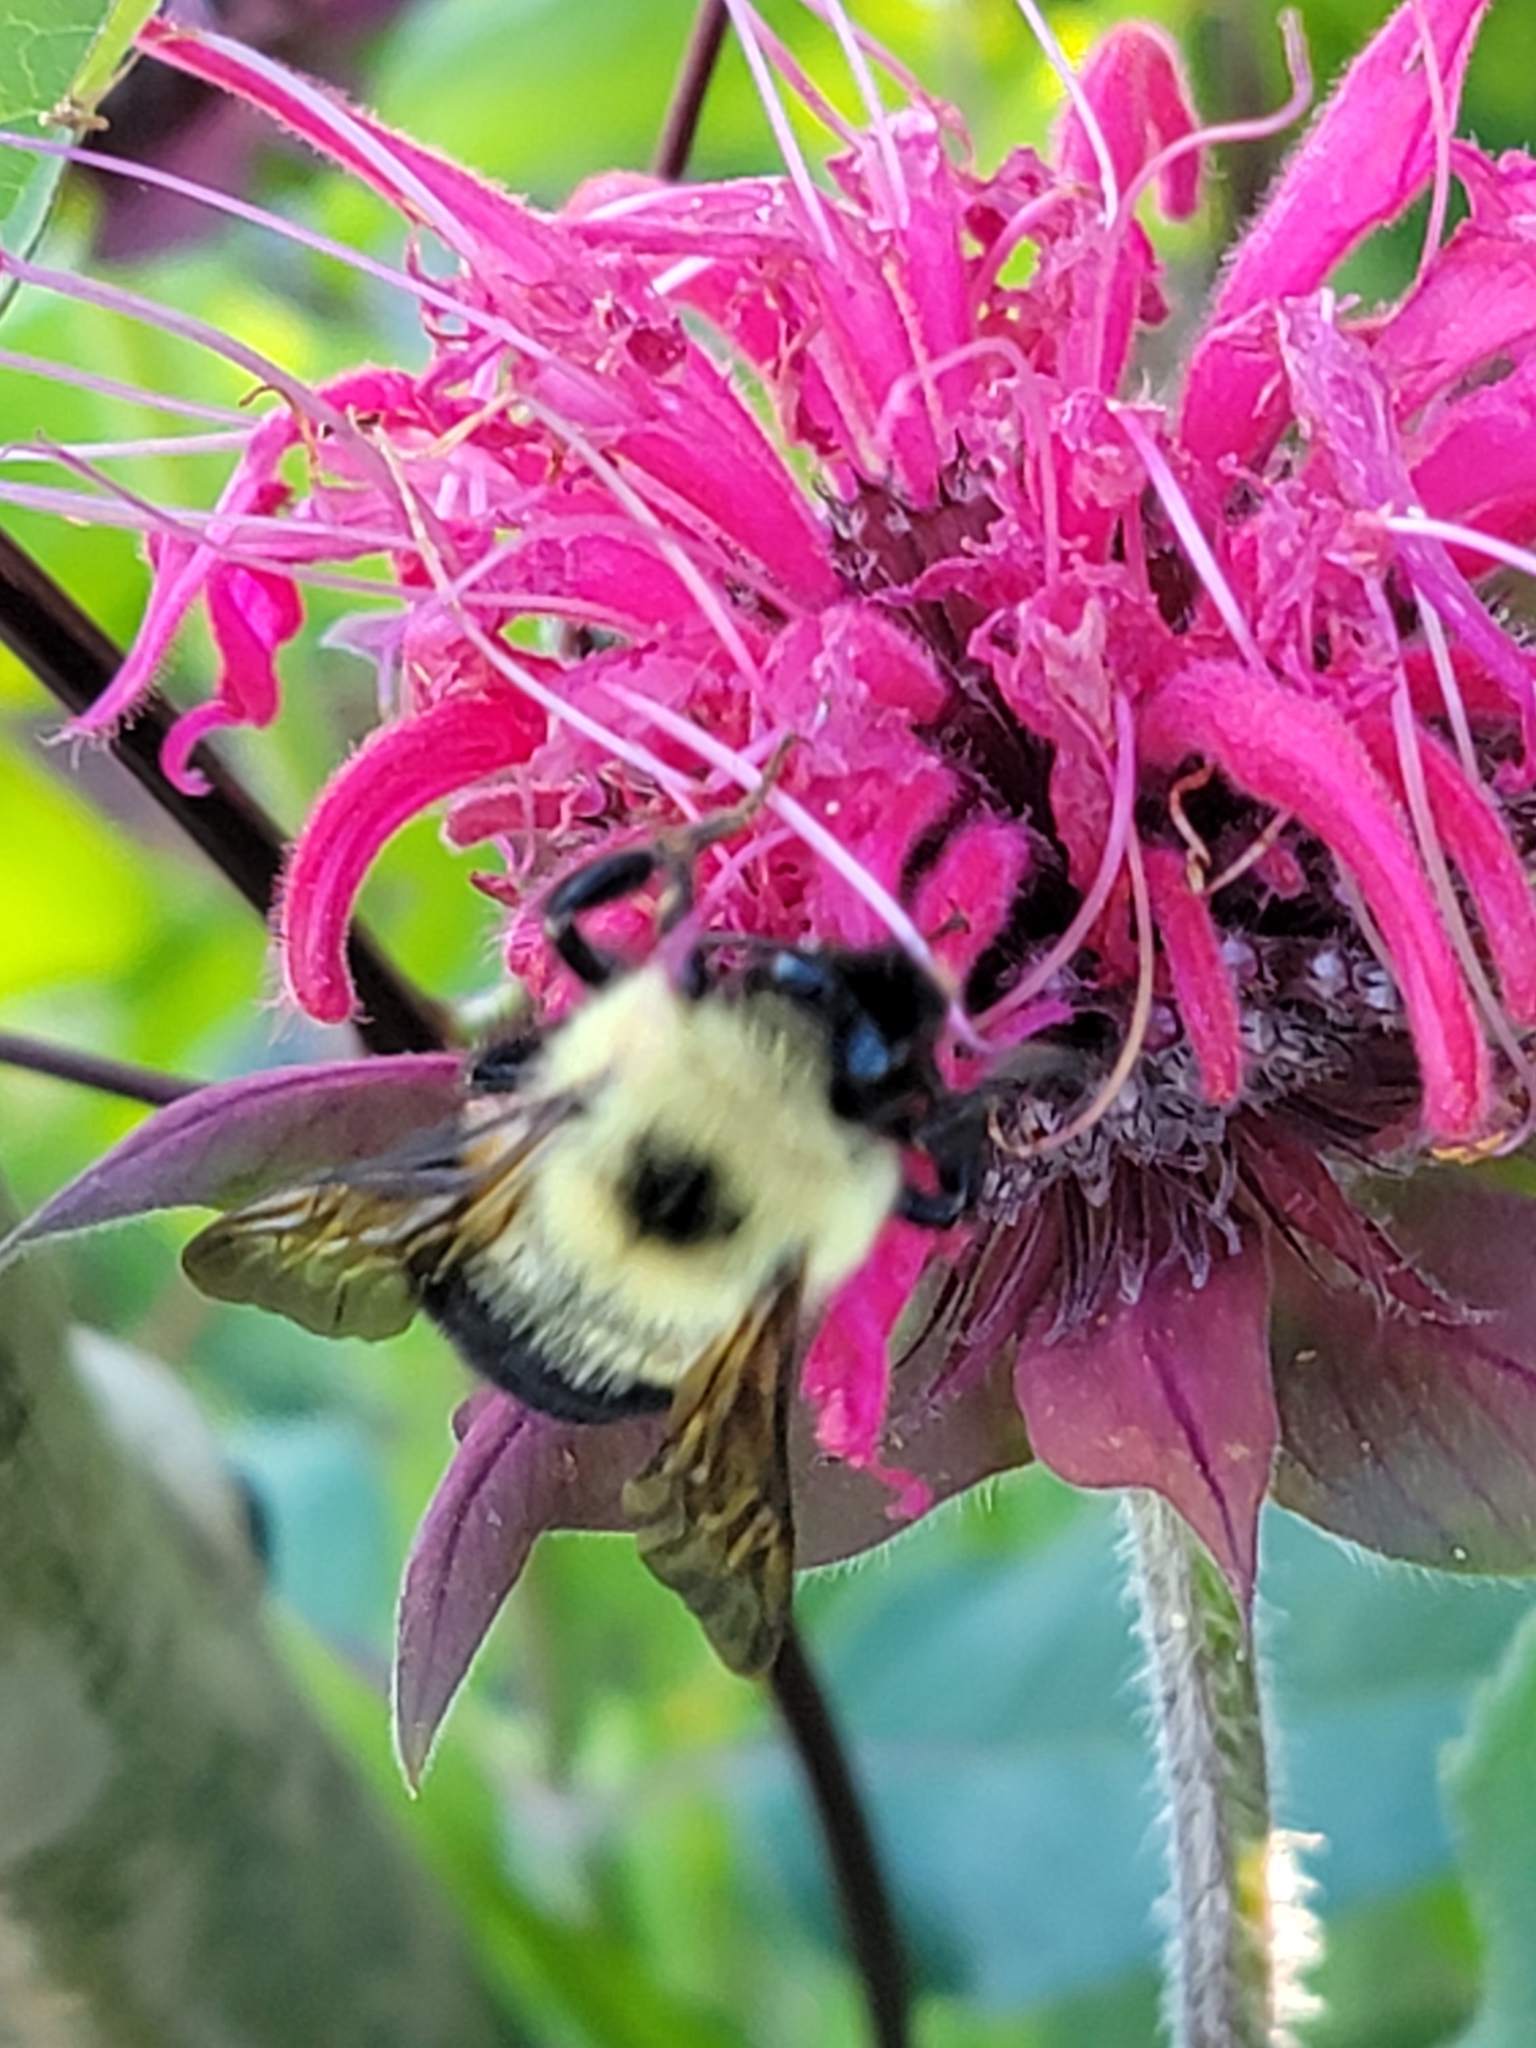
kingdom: Animalia
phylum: Arthropoda
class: Insecta
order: Hymenoptera
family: Apidae
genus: Bombus
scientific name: Bombus bimaculatus
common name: Two-spotted bumble bee
